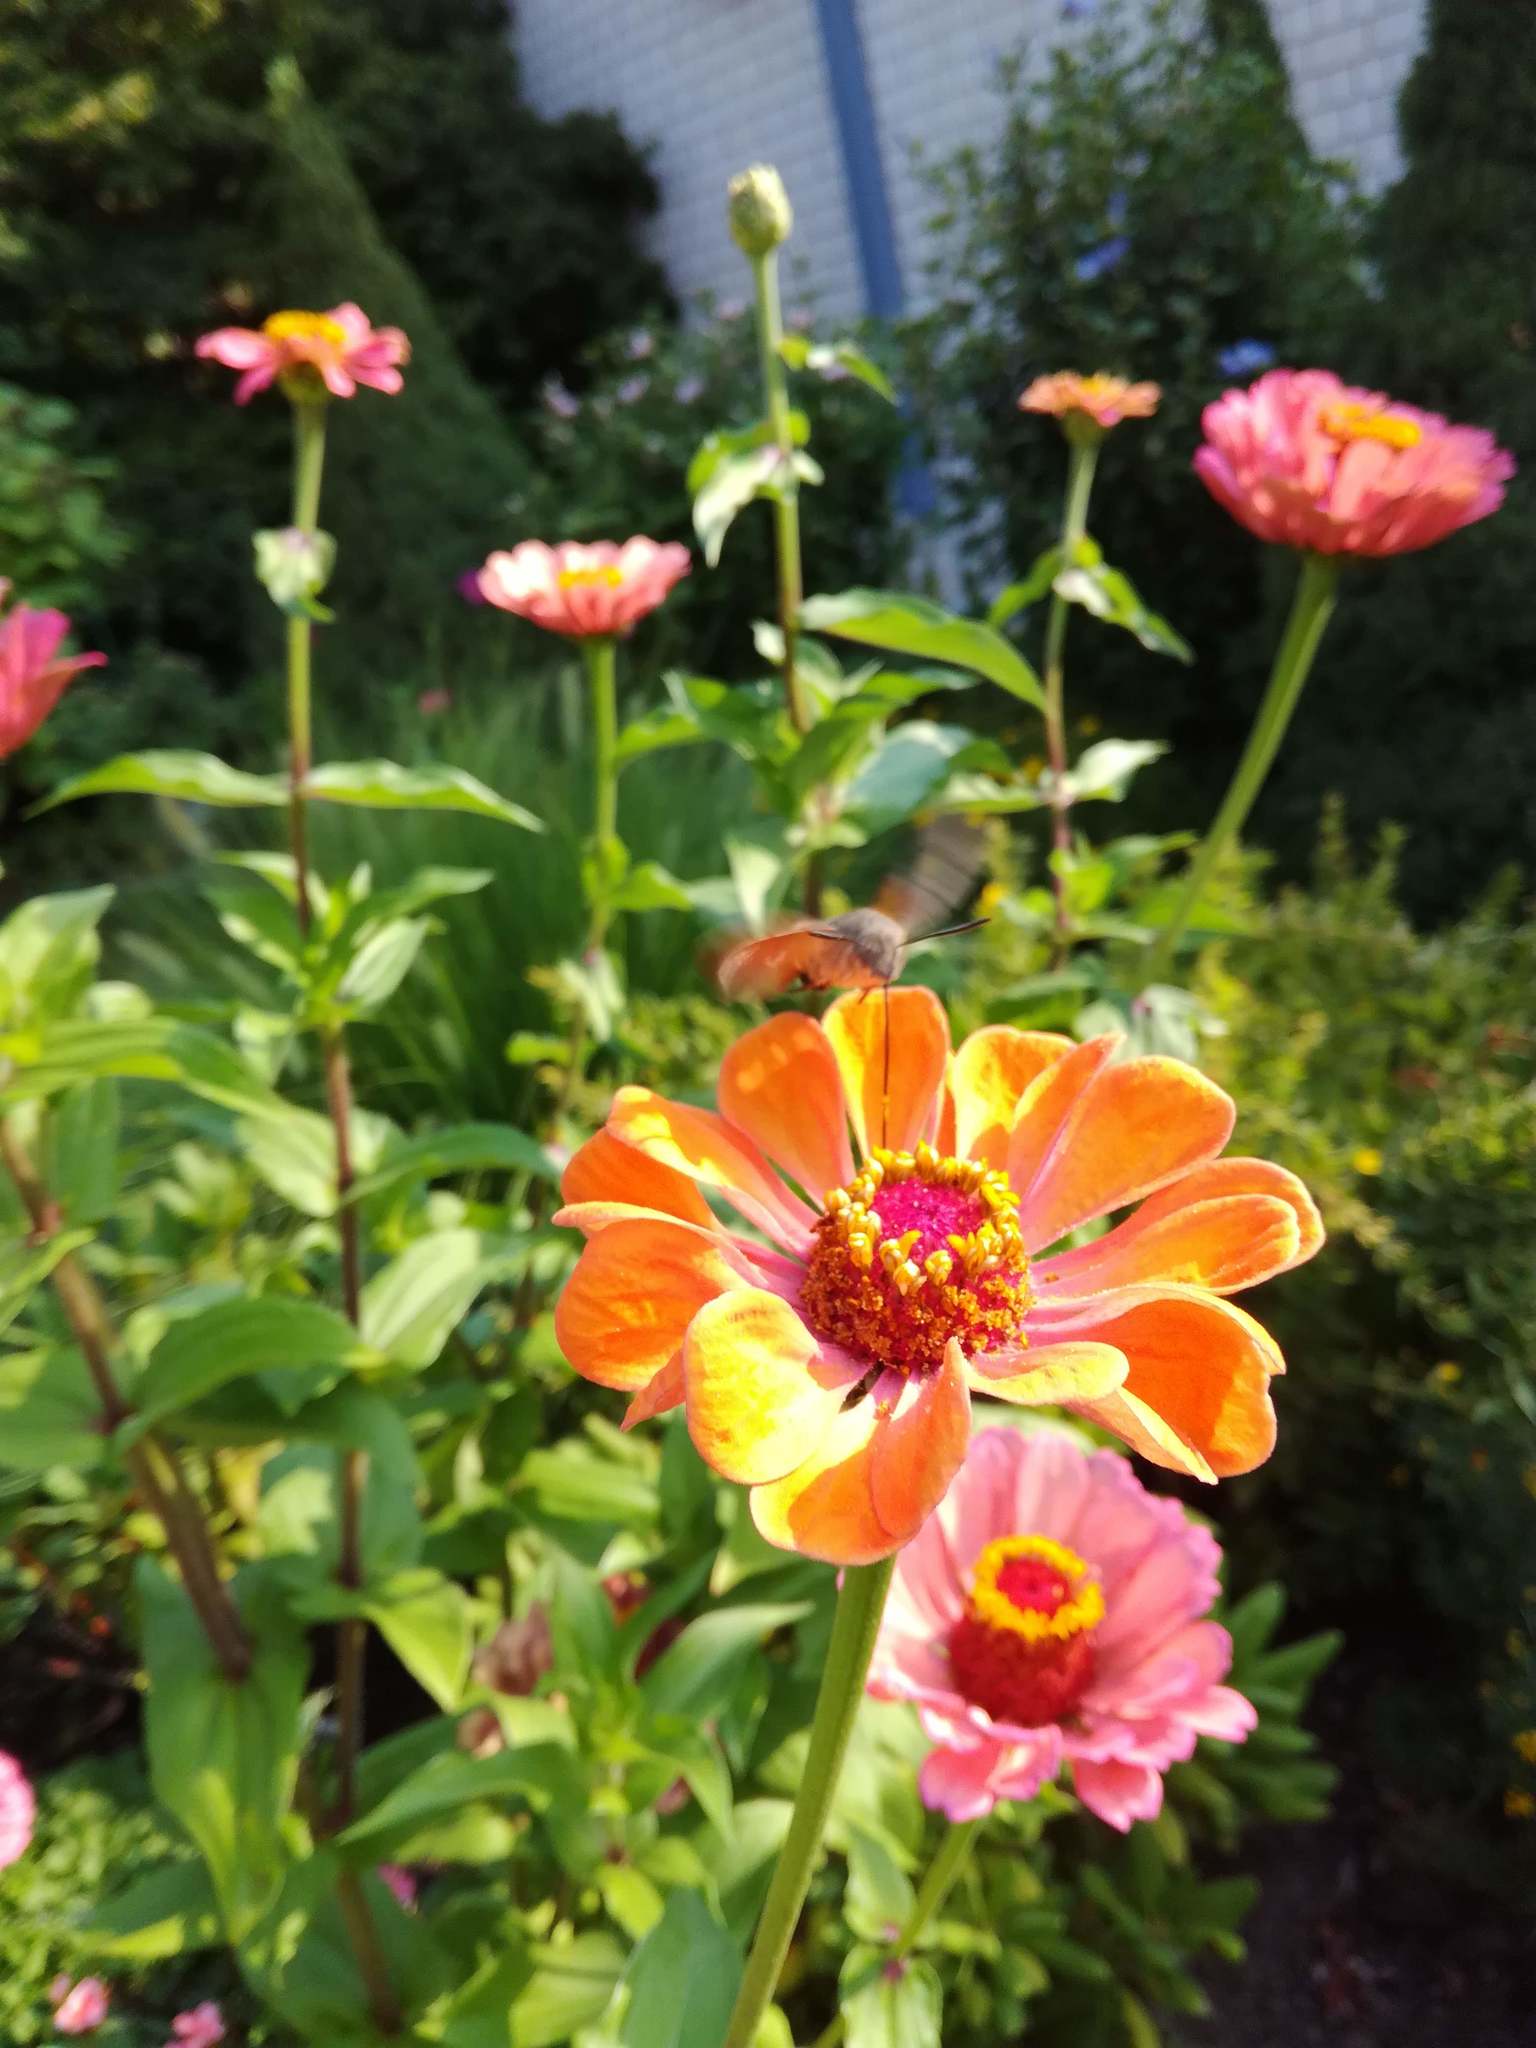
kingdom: Animalia
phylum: Arthropoda
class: Insecta
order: Lepidoptera
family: Sphingidae
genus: Macroglossum
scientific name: Macroglossum stellatarum
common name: Humming-bird hawk-moth
